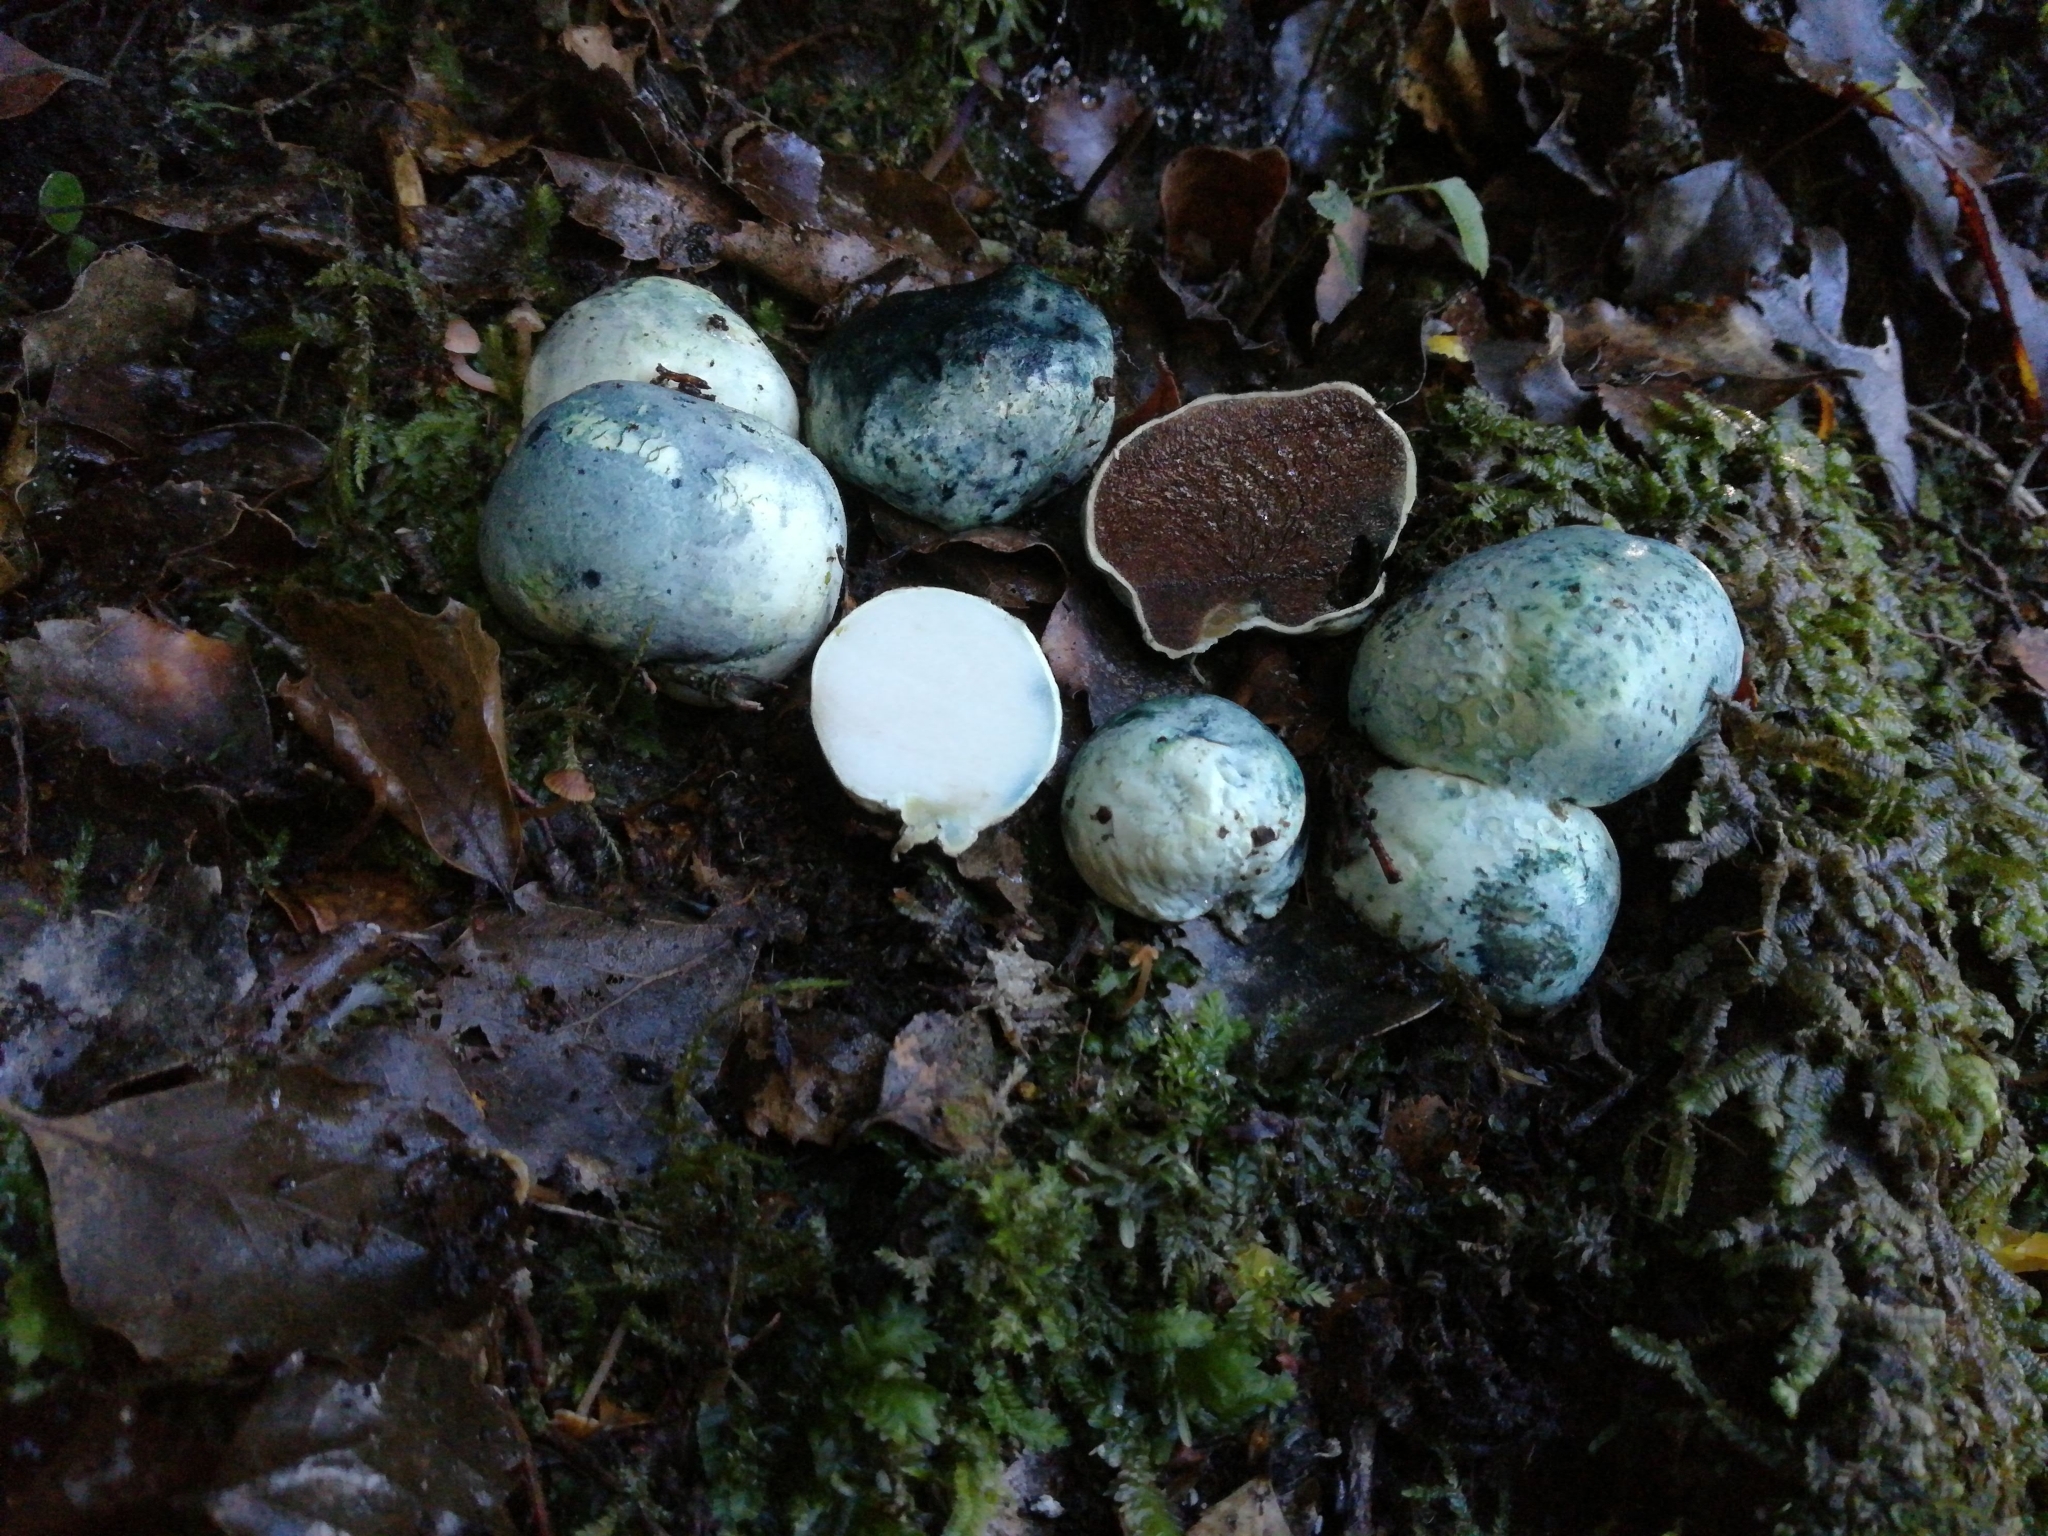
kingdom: Fungi
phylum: Basidiomycota
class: Agaricomycetes
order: Boletales
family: Boletaceae
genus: Leccinum
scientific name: Leccinum pachyderme
